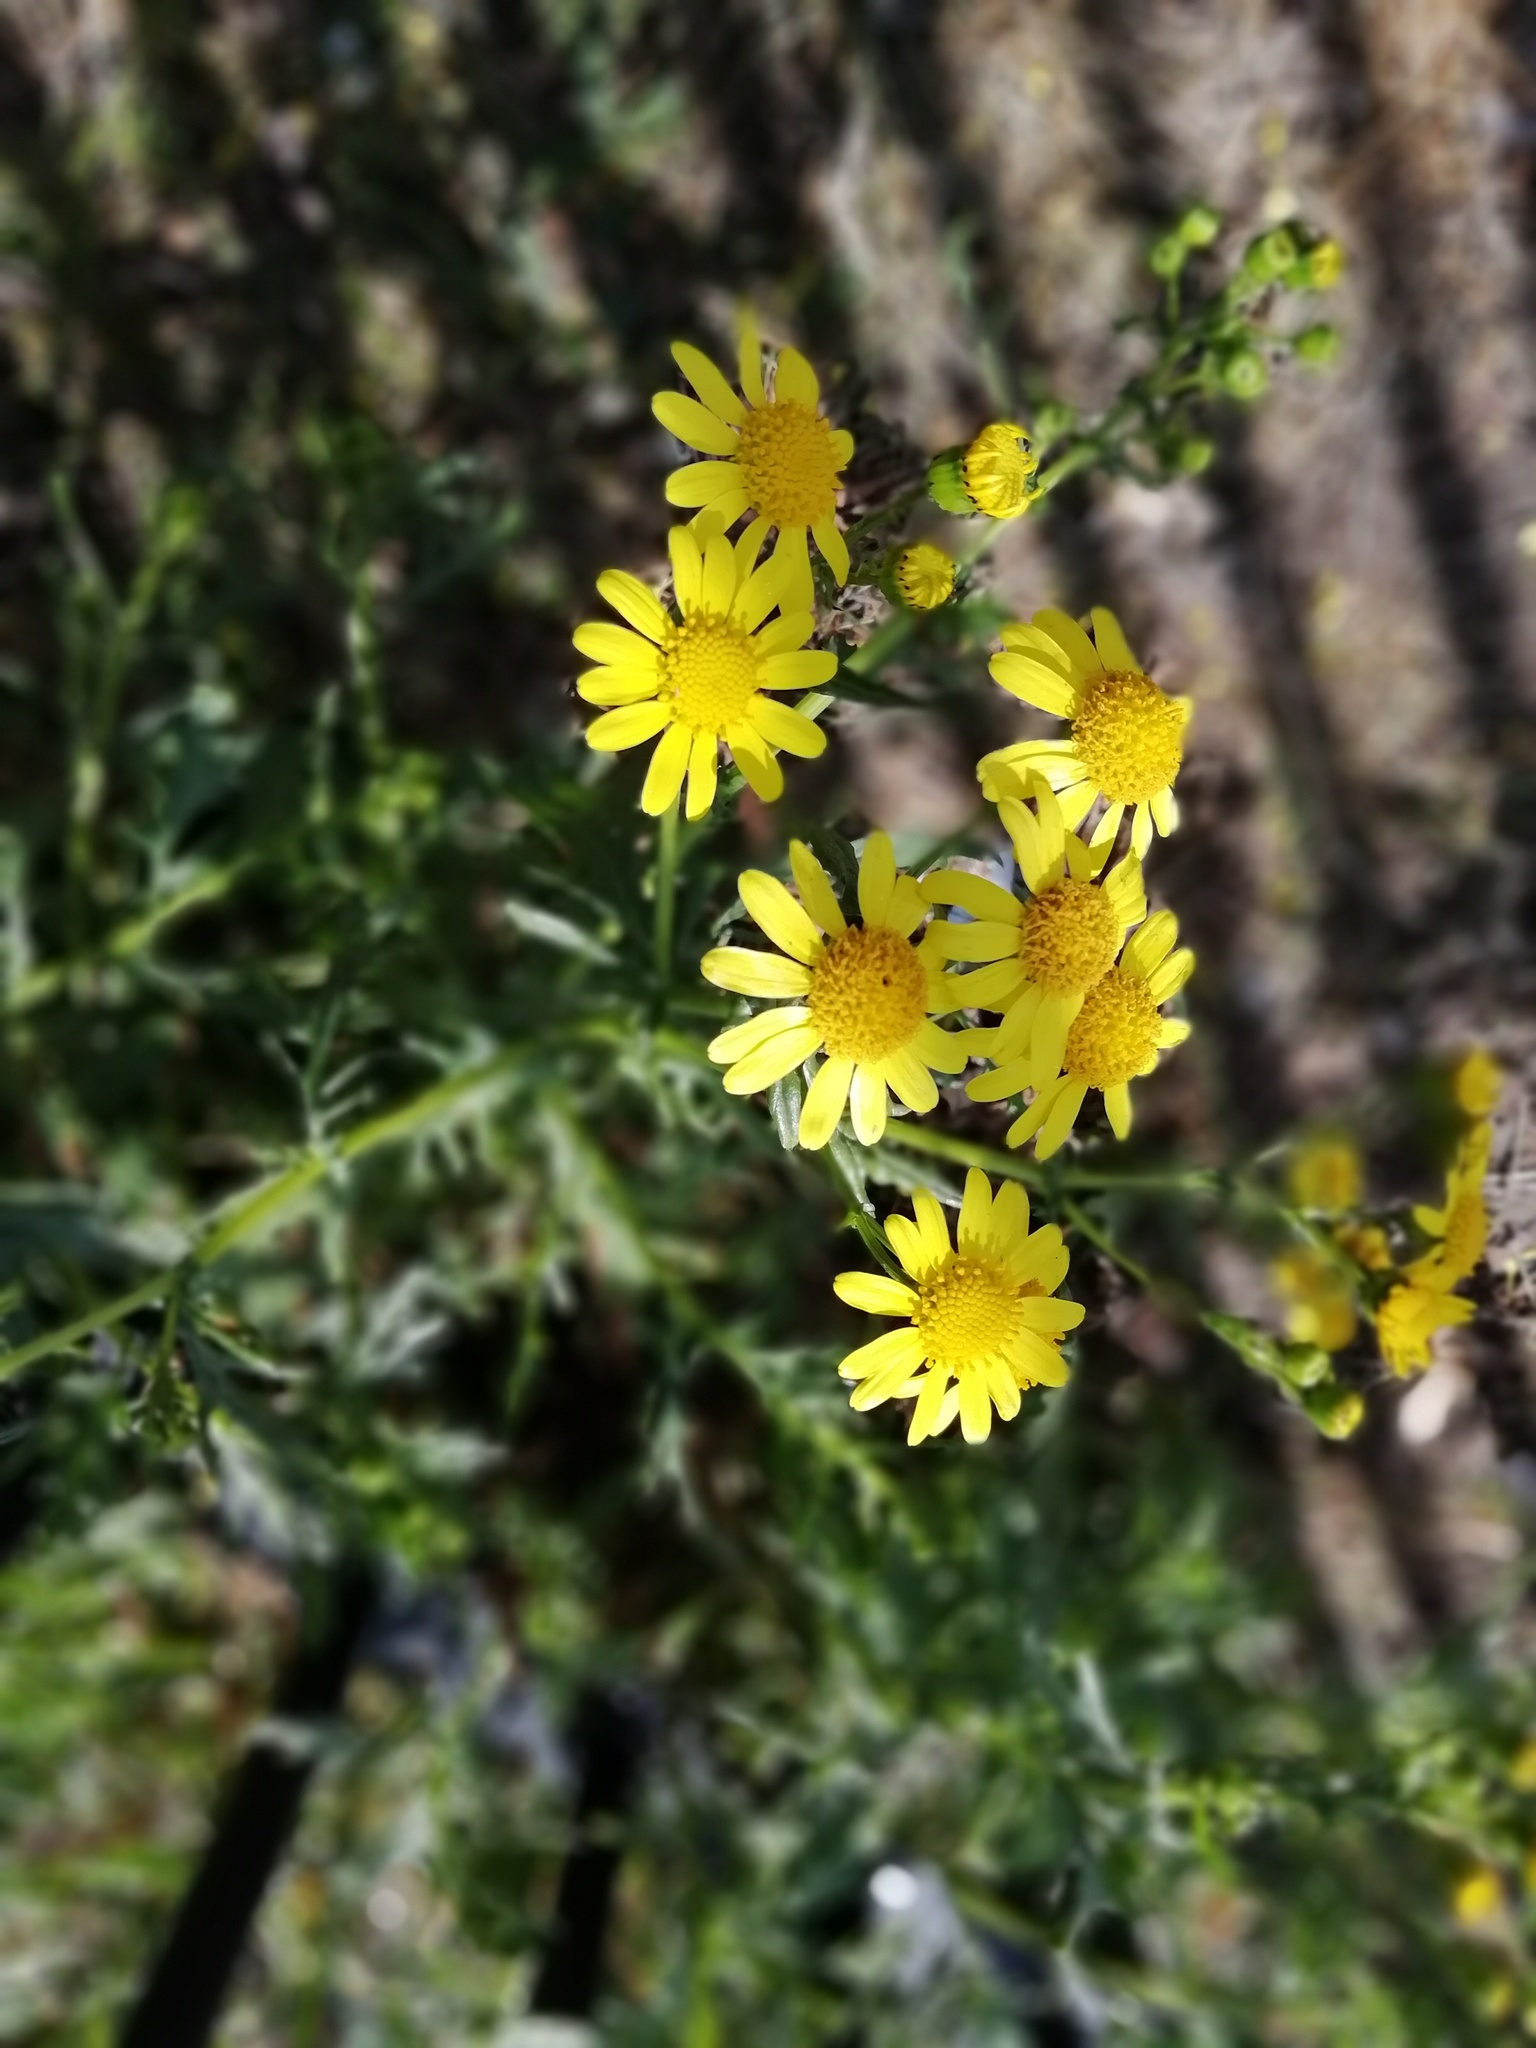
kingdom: Plantae
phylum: Tracheophyta
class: Magnoliopsida
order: Asterales
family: Asteraceae
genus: Senecio
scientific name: Senecio squalidus
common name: Oxford ragwort
